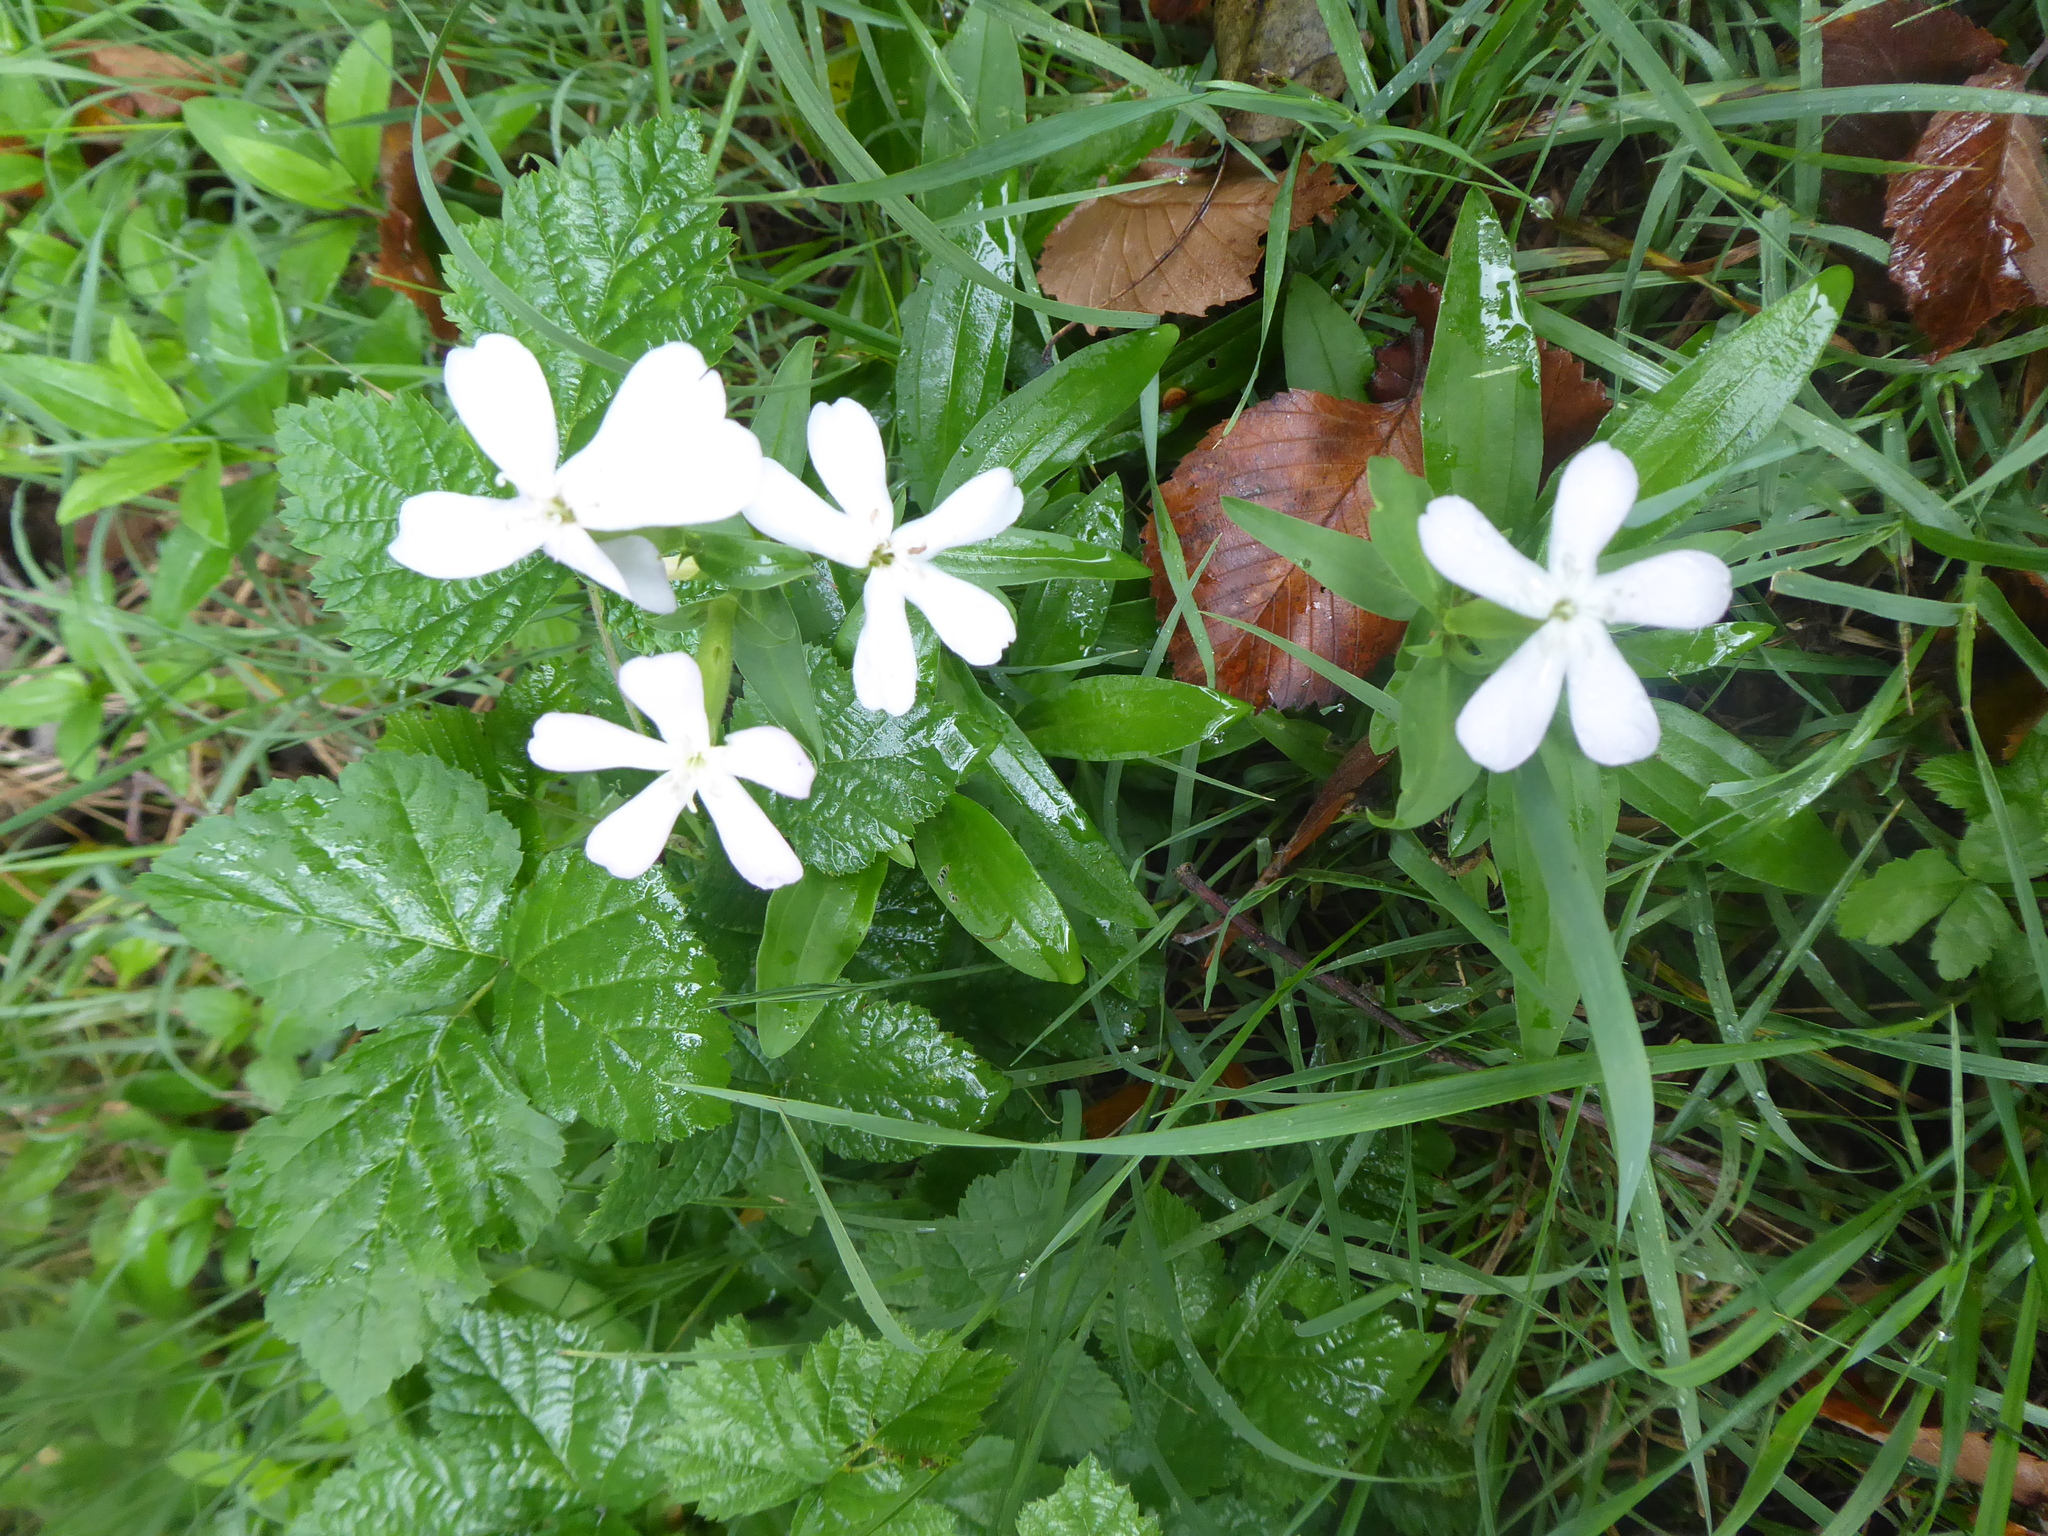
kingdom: Plantae
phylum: Tracheophyta
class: Magnoliopsida
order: Caryophyllales
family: Caryophyllaceae
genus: Saponaria
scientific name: Saponaria officinalis
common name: Soapwort
